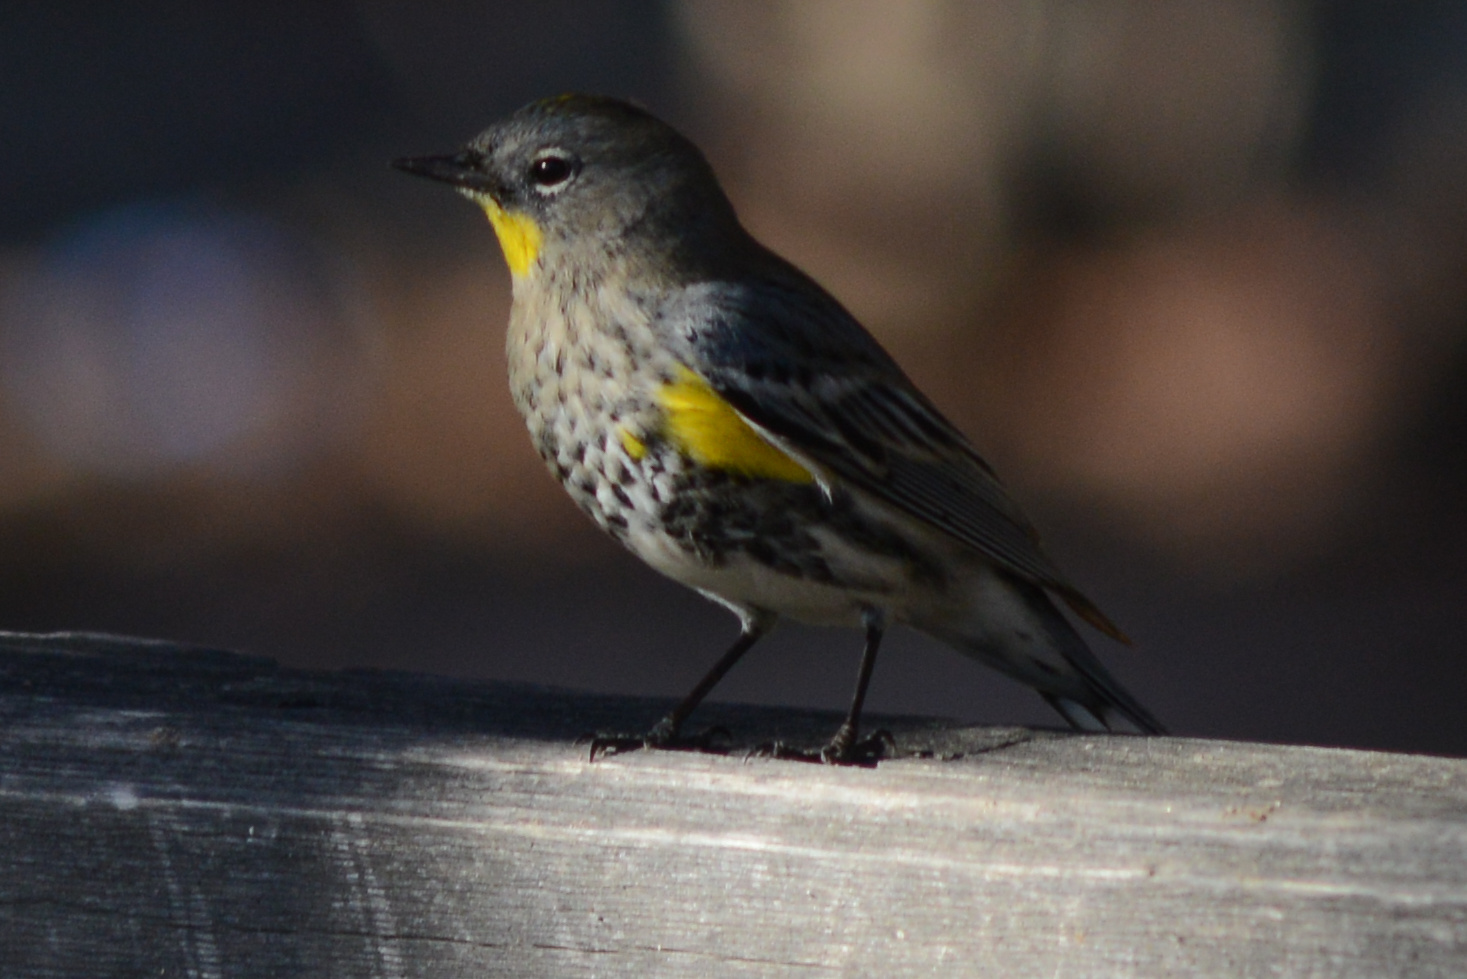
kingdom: Animalia
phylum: Chordata
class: Aves
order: Passeriformes
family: Parulidae
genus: Setophaga
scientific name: Setophaga auduboni
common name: Audubon's warbler
